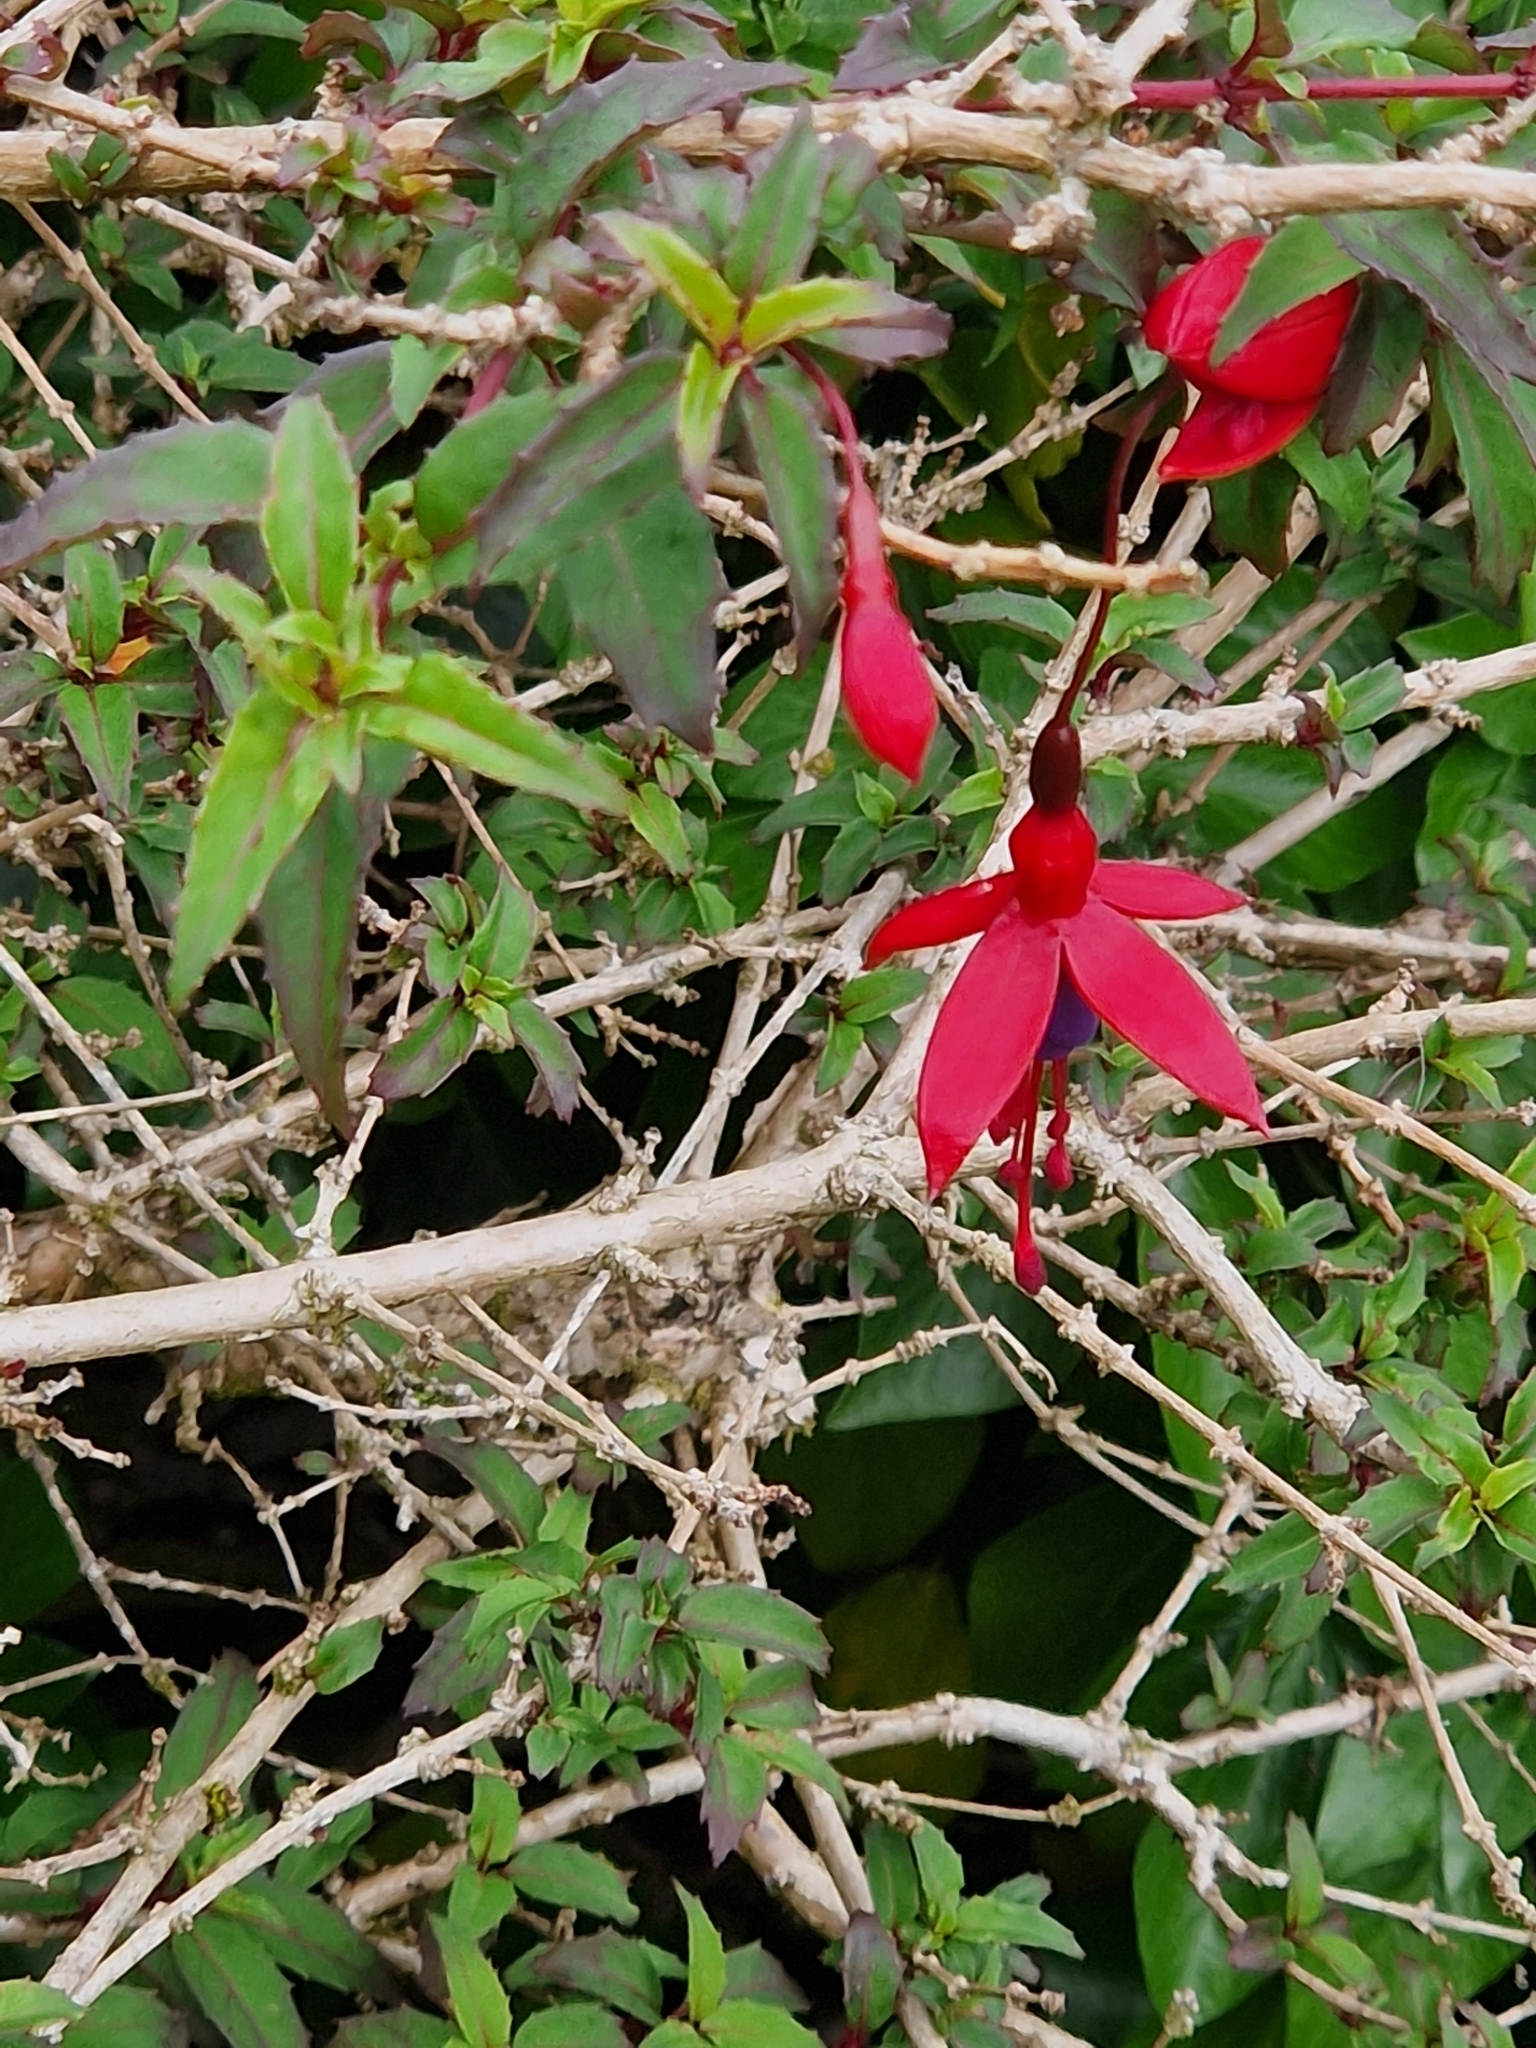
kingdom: Plantae
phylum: Tracheophyta
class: Magnoliopsida
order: Myrtales
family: Onagraceae
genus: Fuchsia
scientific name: Fuchsia magellanica
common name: Hardy fuchsia
